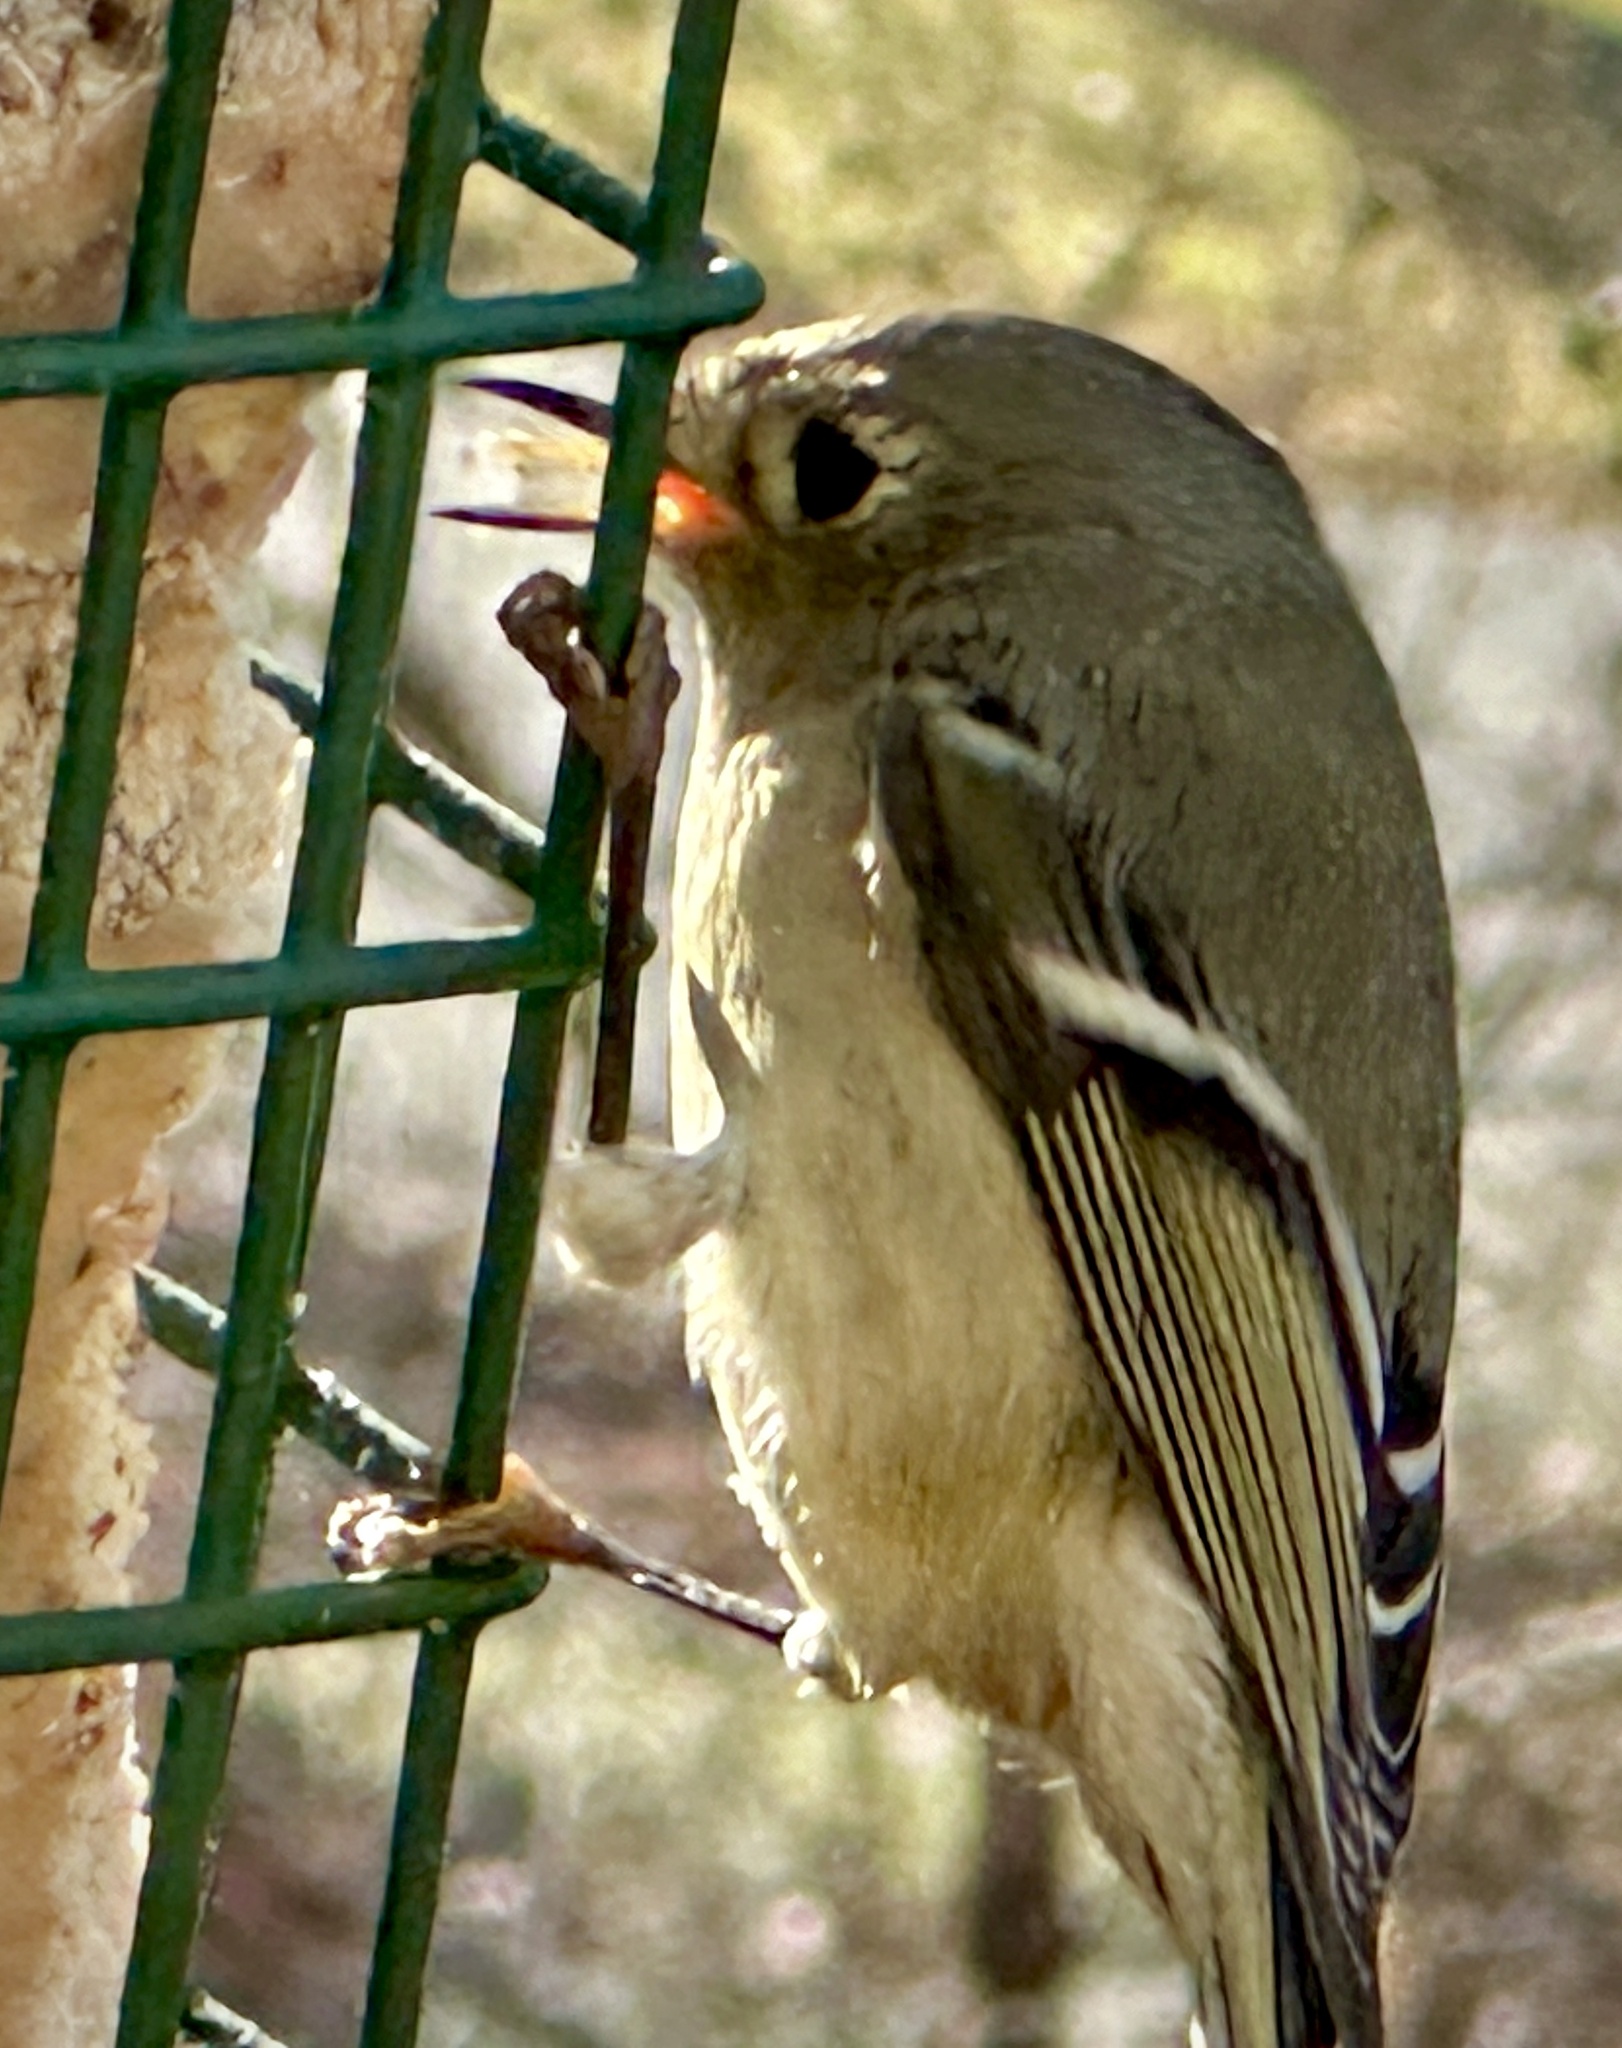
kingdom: Animalia
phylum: Chordata
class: Aves
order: Passeriformes
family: Regulidae
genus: Regulus
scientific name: Regulus calendula
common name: Ruby-crowned kinglet
